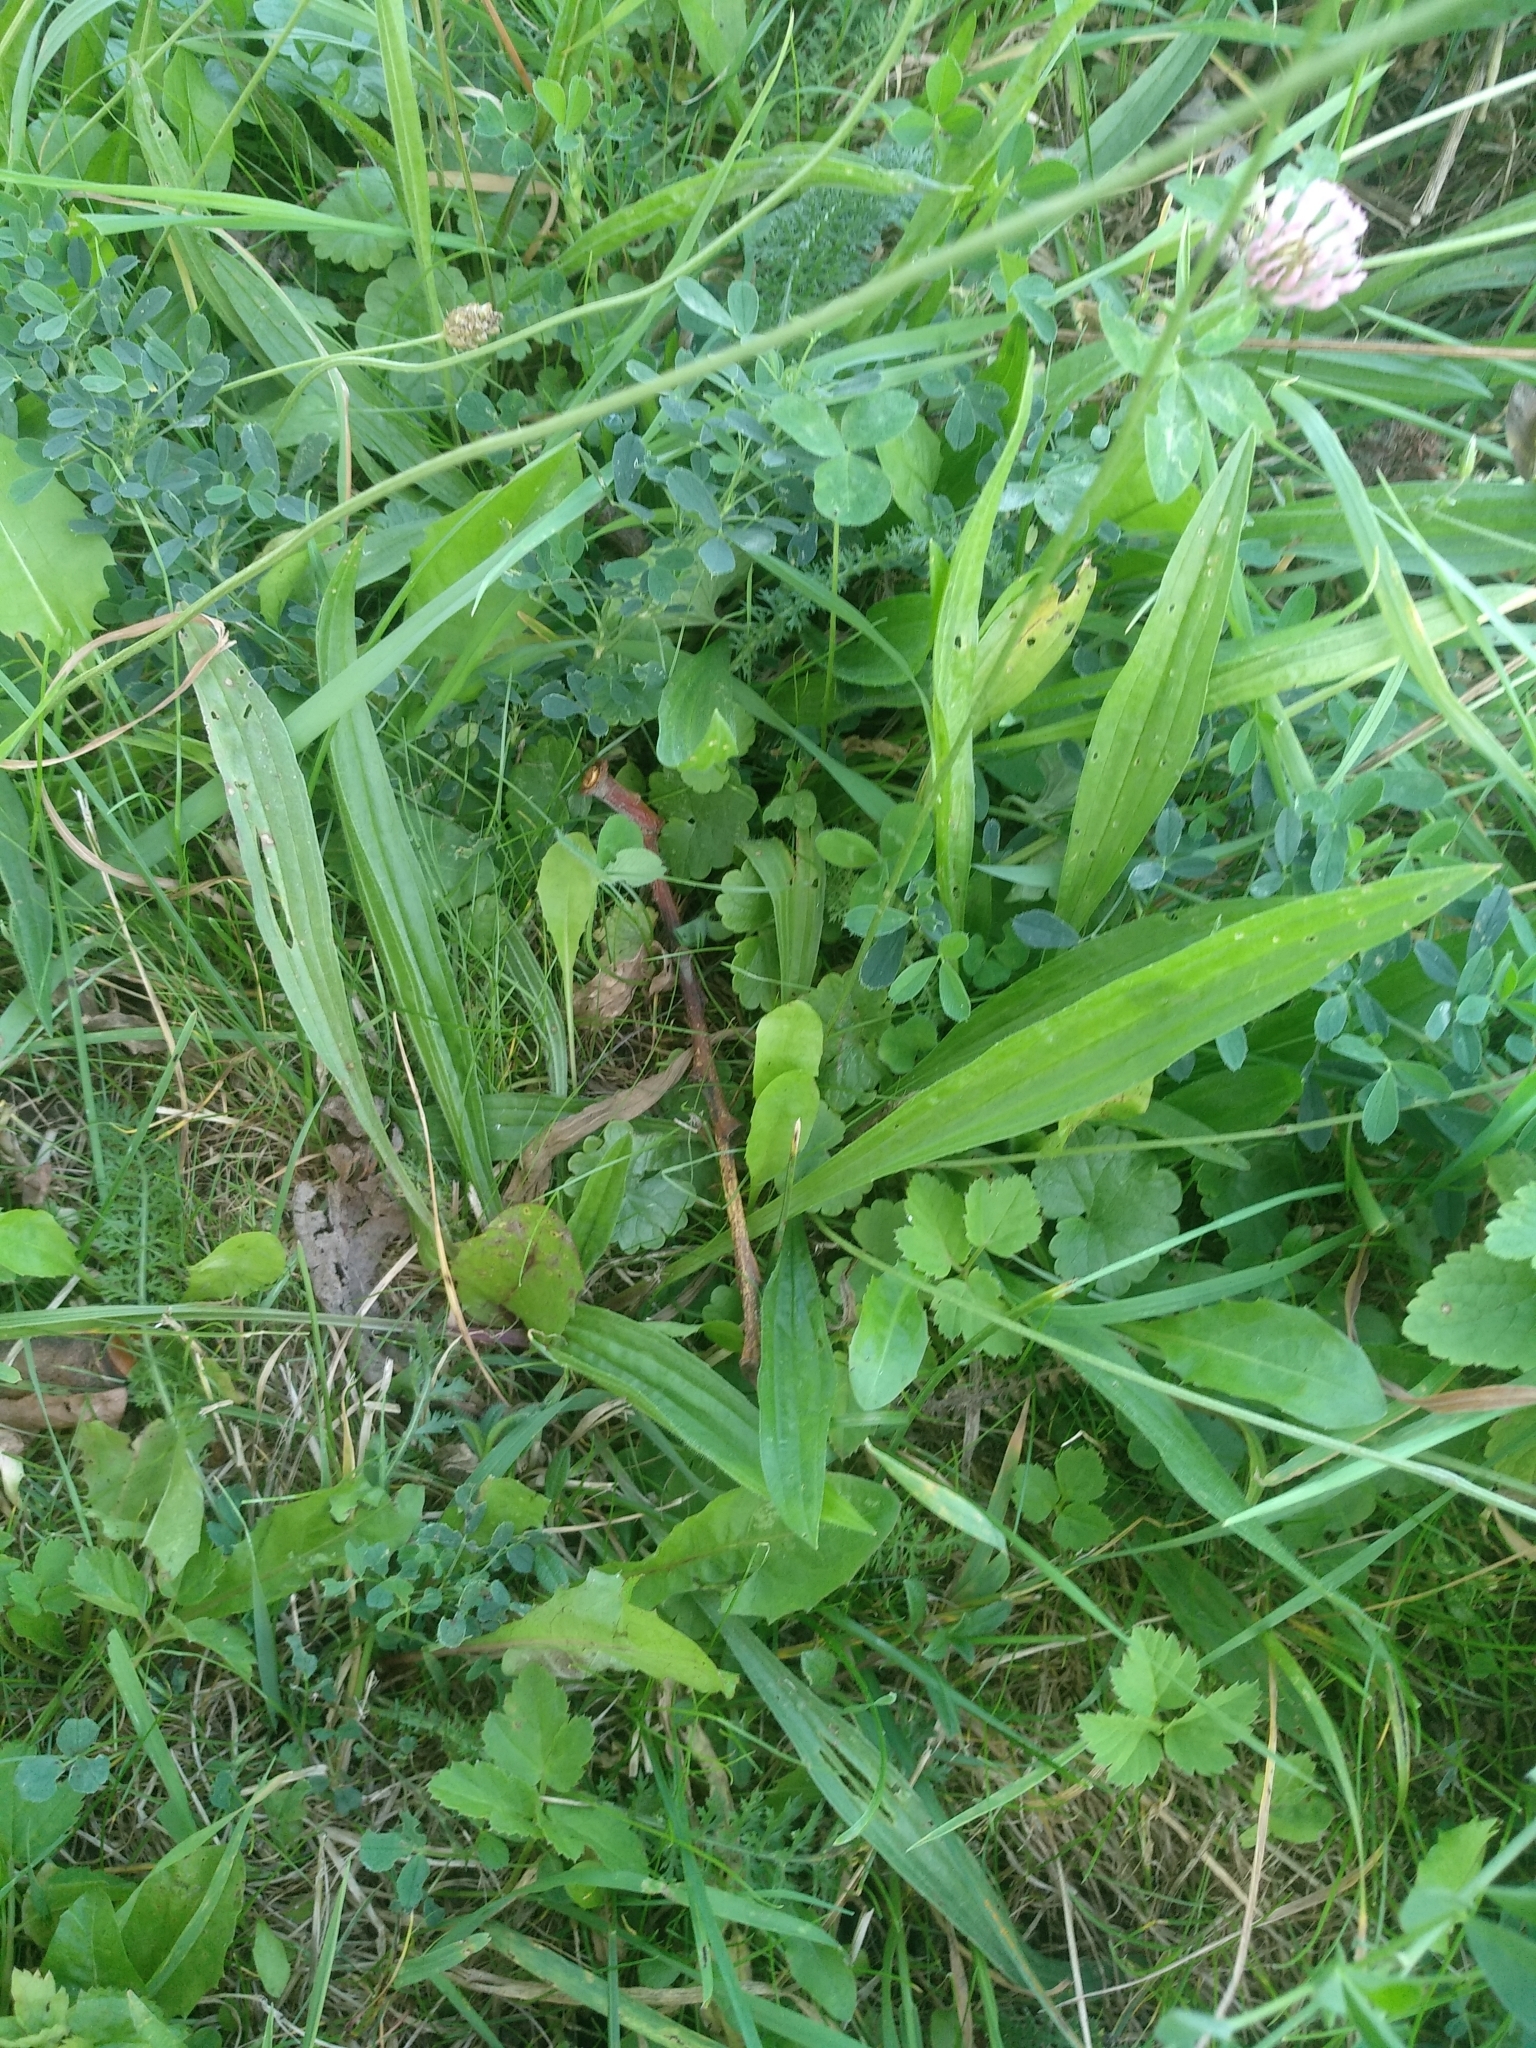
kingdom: Plantae
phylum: Tracheophyta
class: Magnoliopsida
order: Lamiales
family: Plantaginaceae
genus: Plantago
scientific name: Plantago lanceolata
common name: Ribwort plantain
